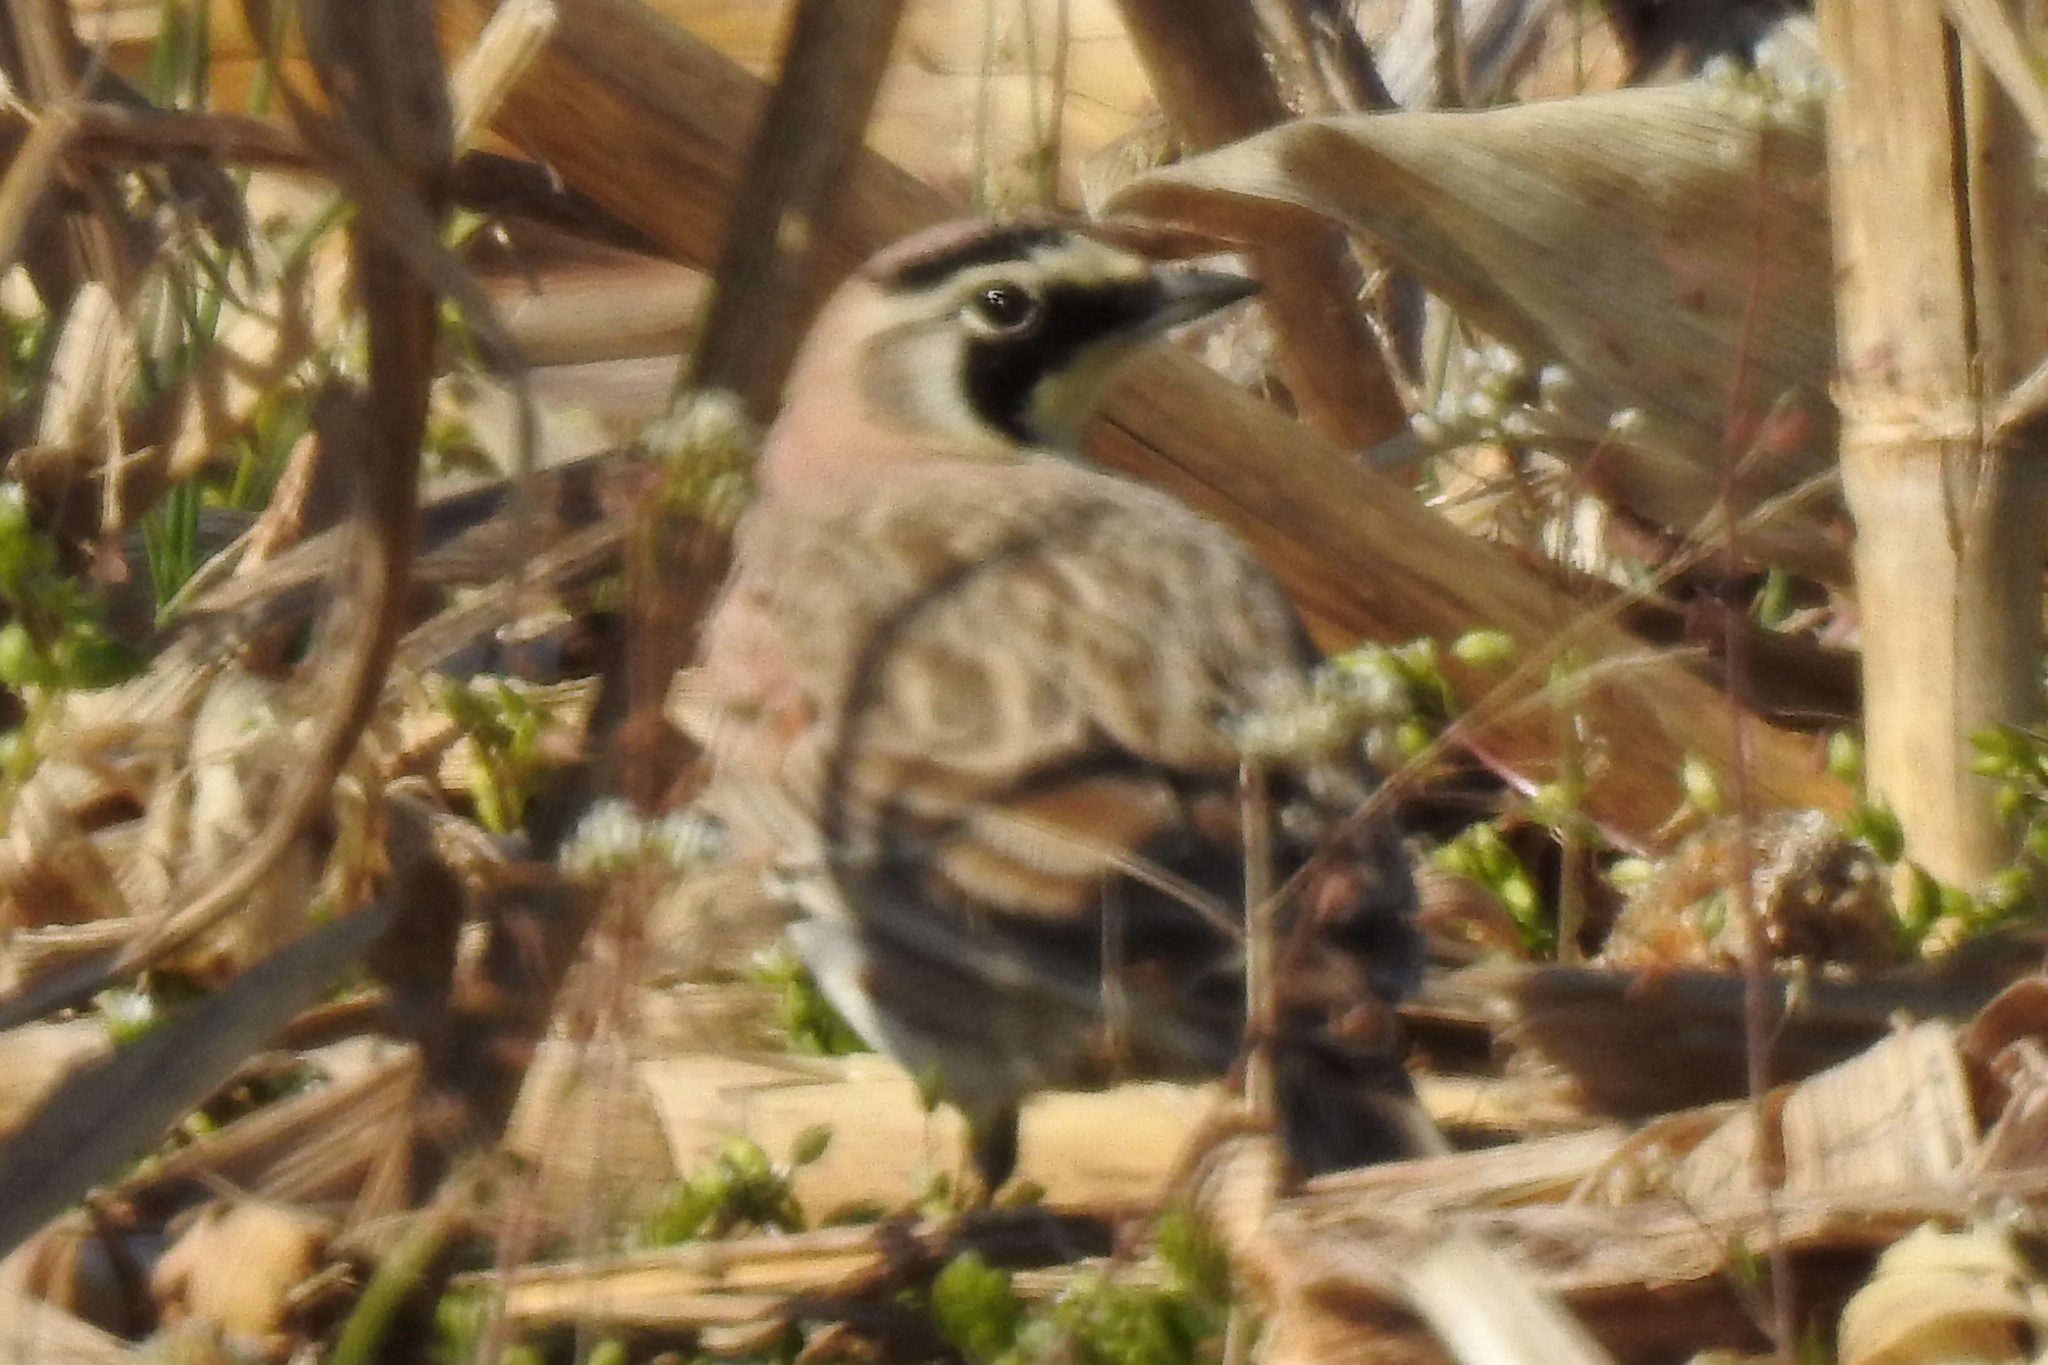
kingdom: Animalia
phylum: Chordata
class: Aves
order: Passeriformes
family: Alaudidae
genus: Eremophila
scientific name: Eremophila alpestris
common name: Horned lark
